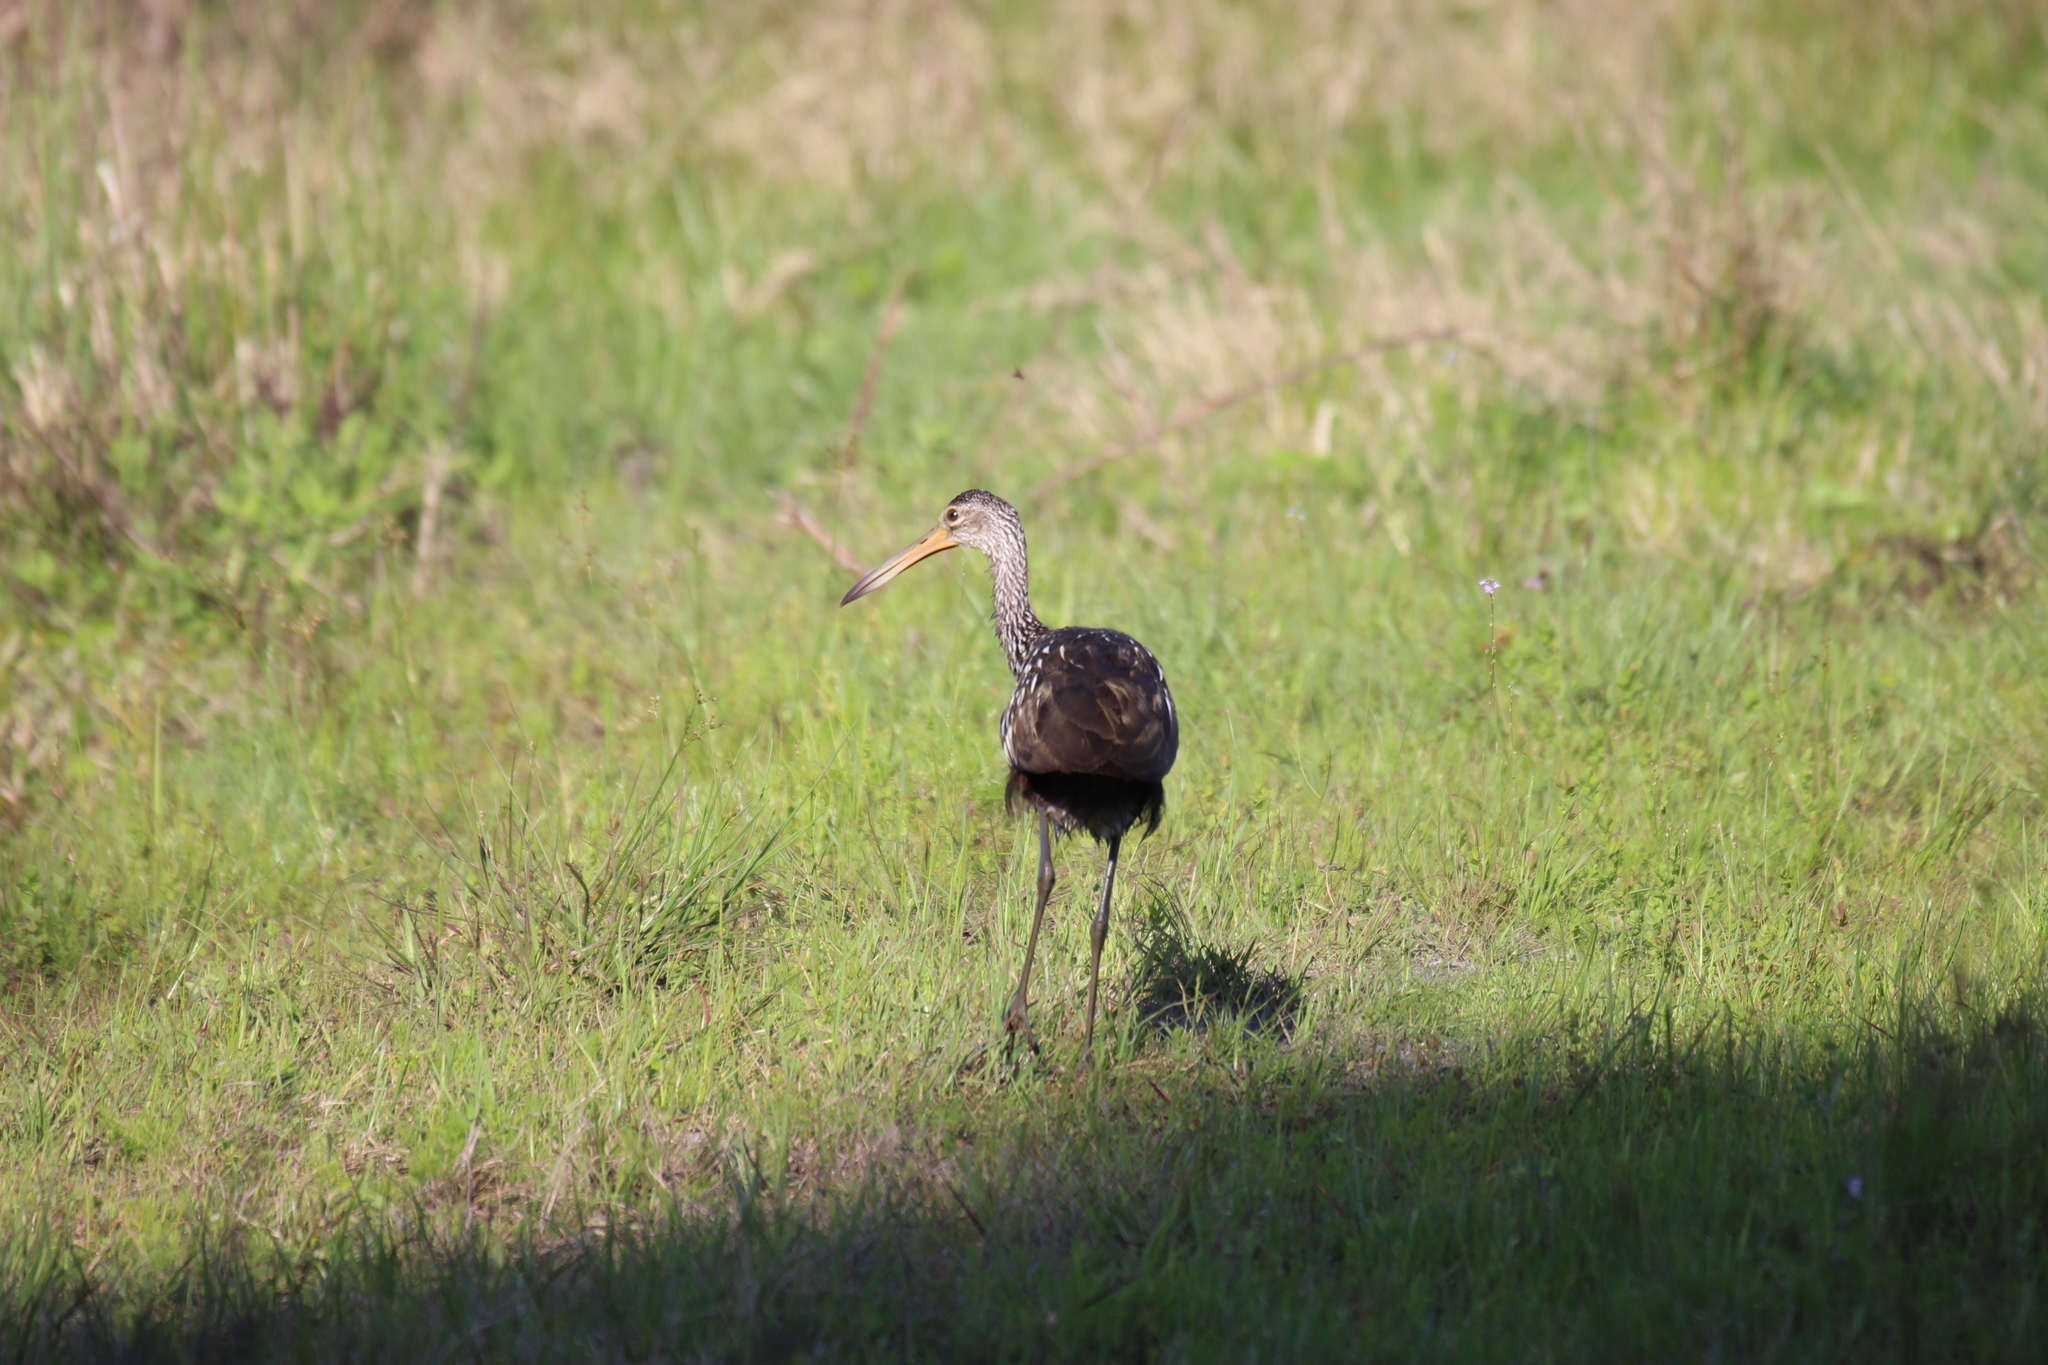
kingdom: Animalia
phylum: Chordata
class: Aves
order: Gruiformes
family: Aramidae
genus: Aramus
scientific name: Aramus guarauna
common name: Limpkin
